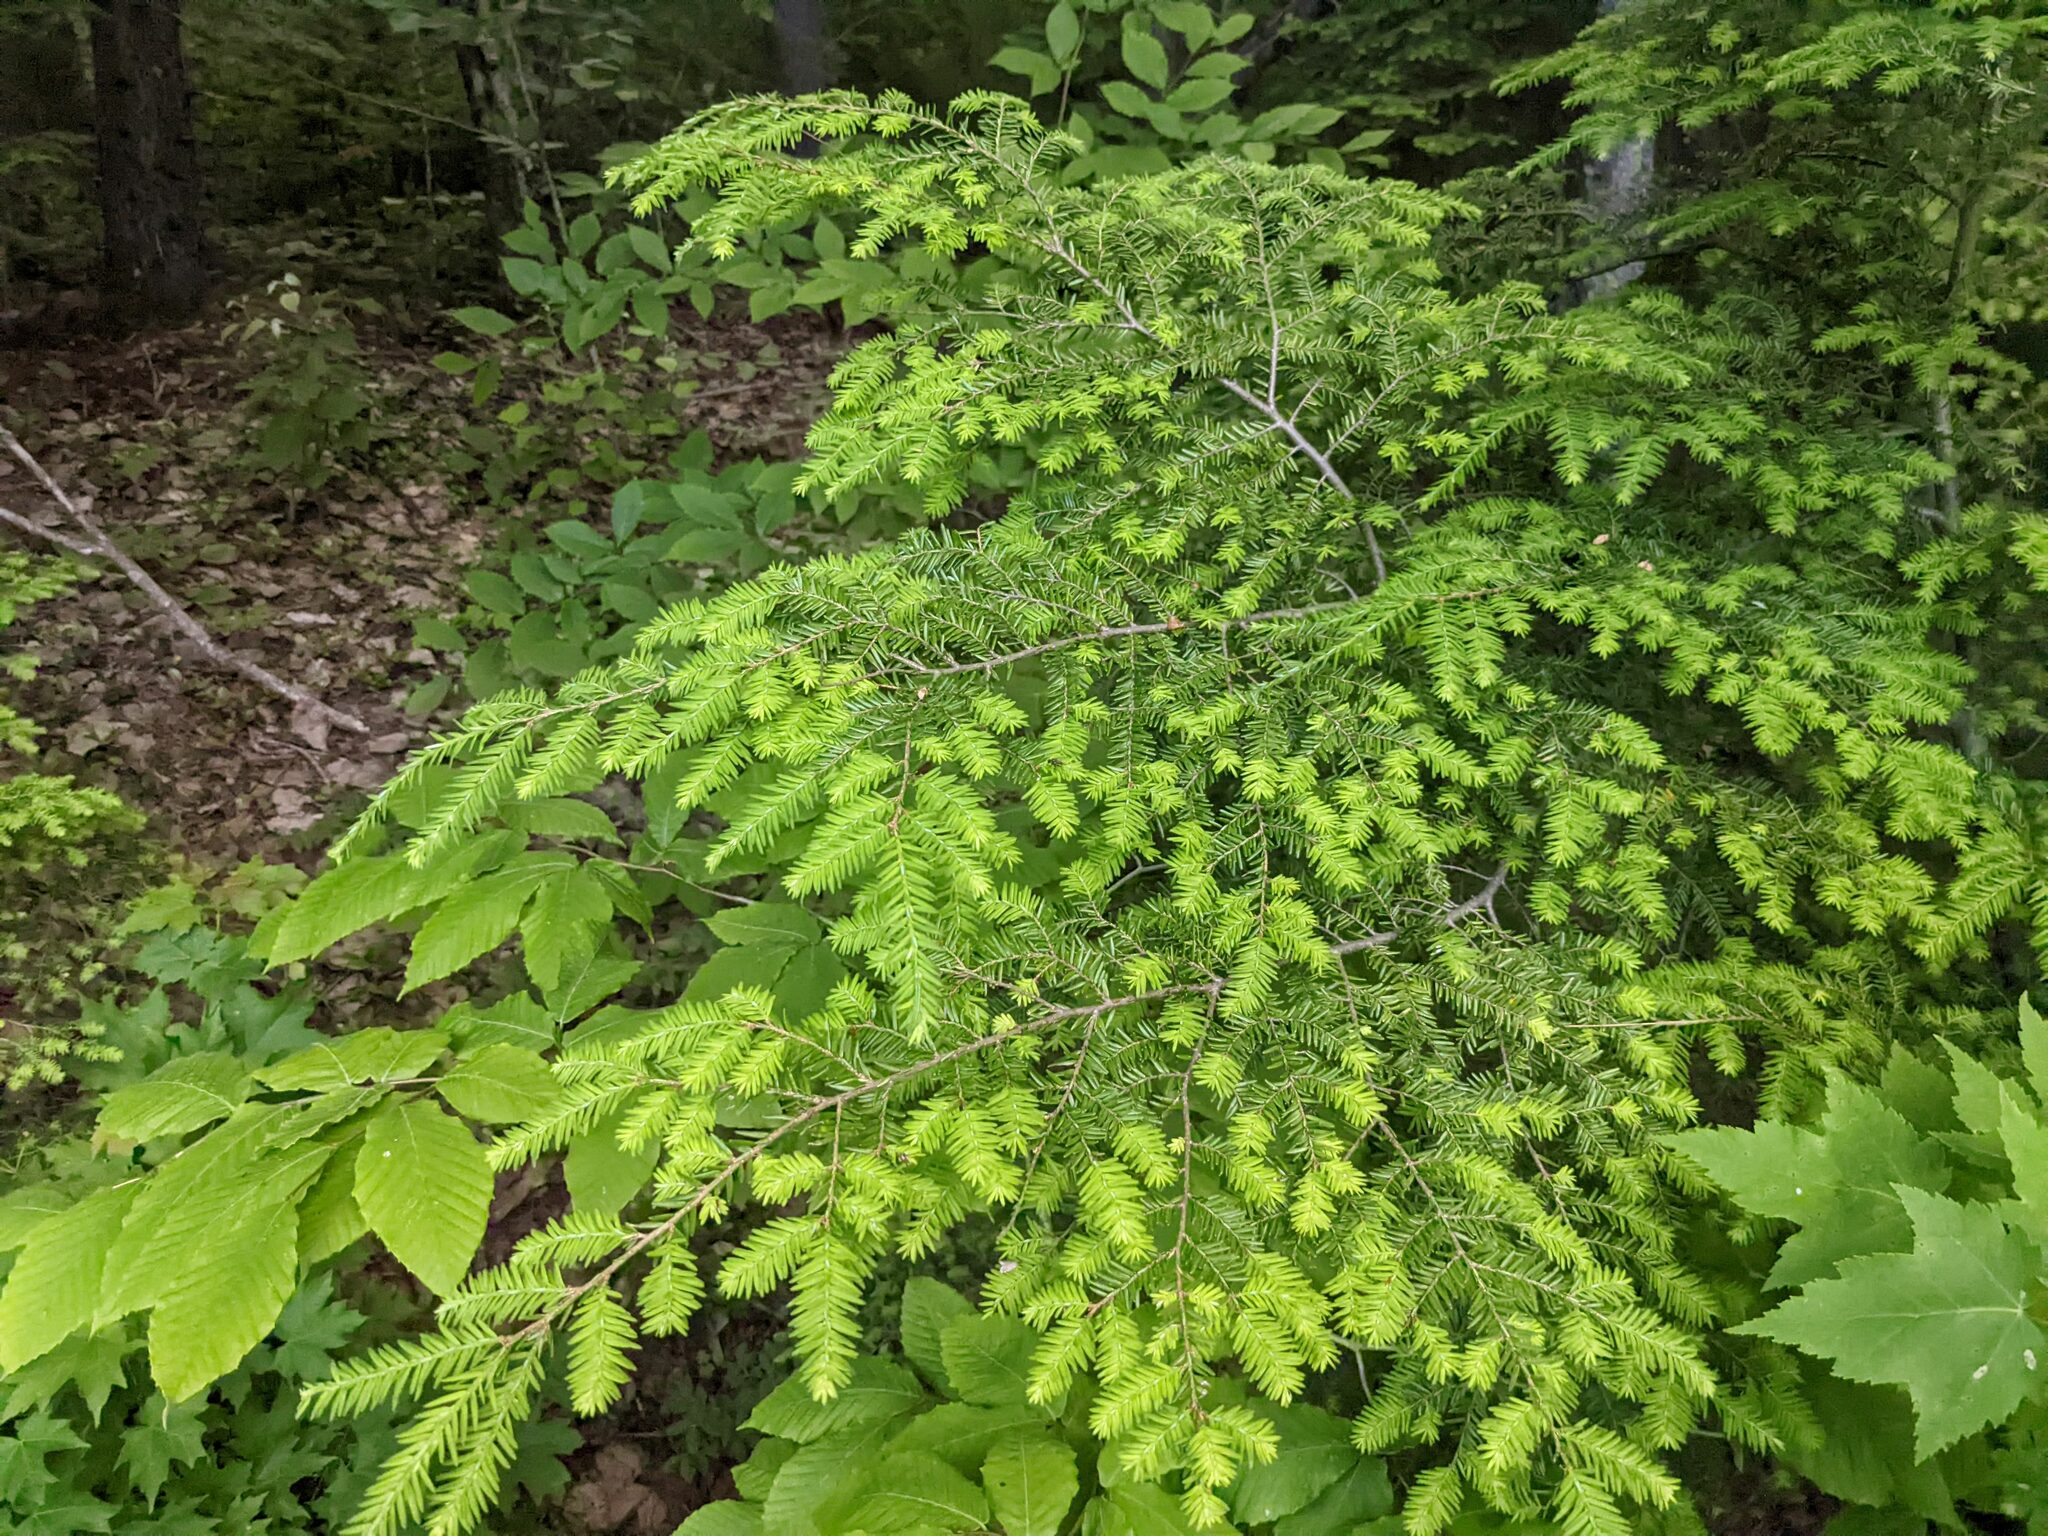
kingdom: Plantae
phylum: Tracheophyta
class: Pinopsida
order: Pinales
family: Pinaceae
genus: Tsuga
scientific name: Tsuga canadensis
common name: Eastern hemlock
